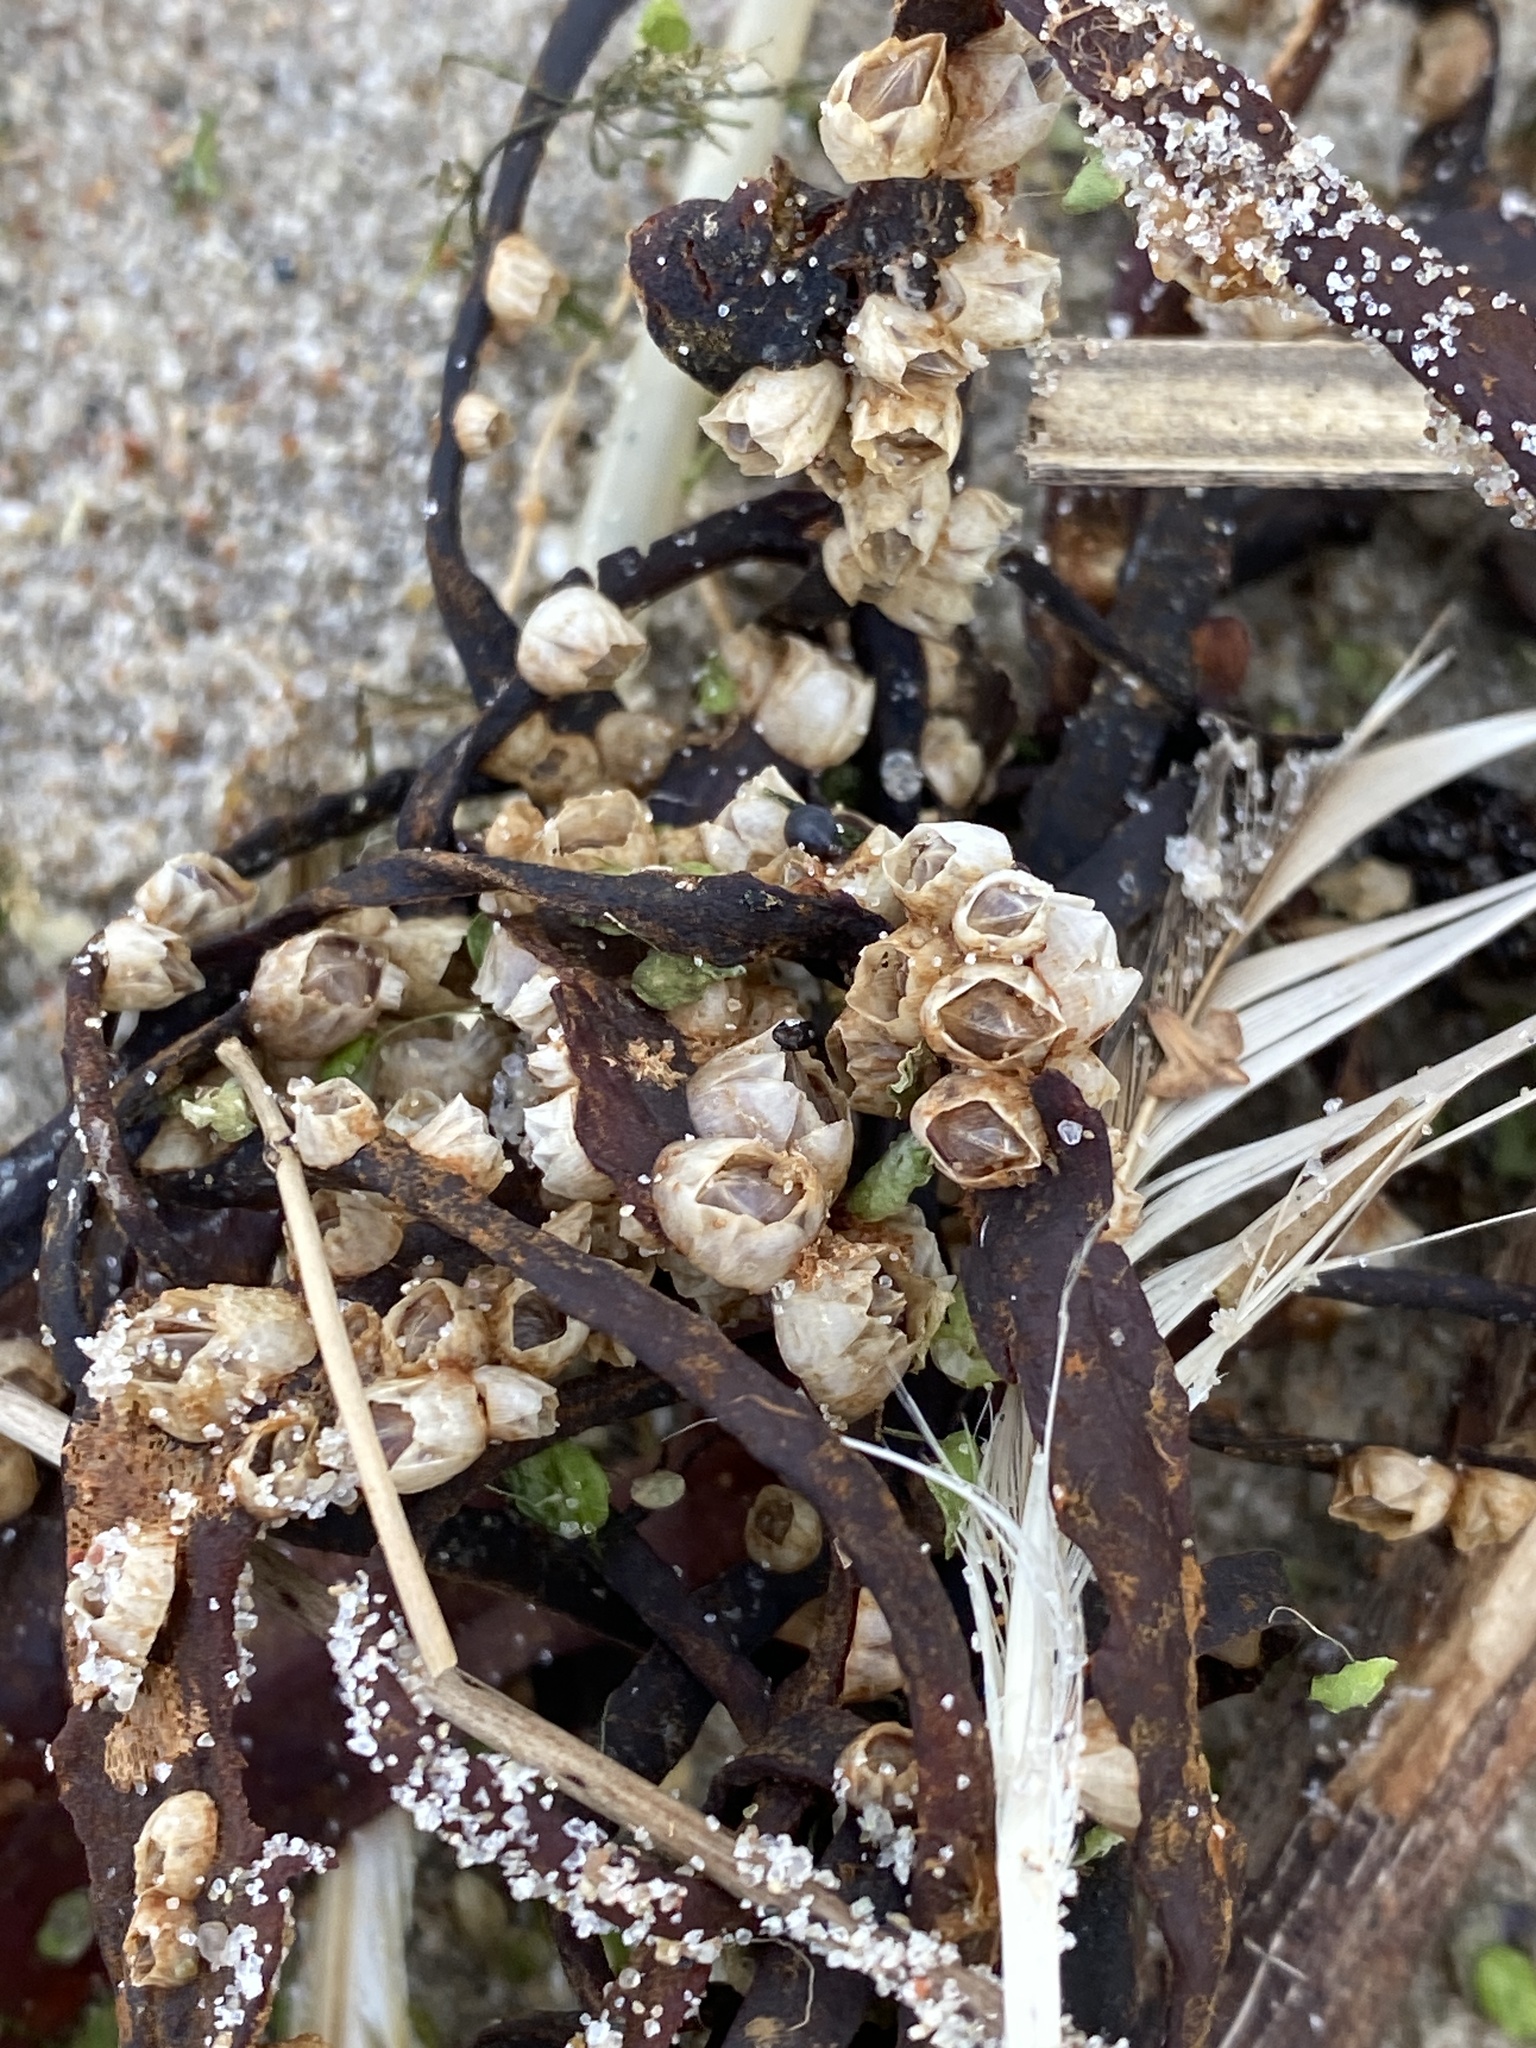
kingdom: Animalia
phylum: Arthropoda
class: Maxillopoda
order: Sessilia
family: Balanidae
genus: Amphibalanus
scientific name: Amphibalanus improvisus
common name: Bay barnacle
